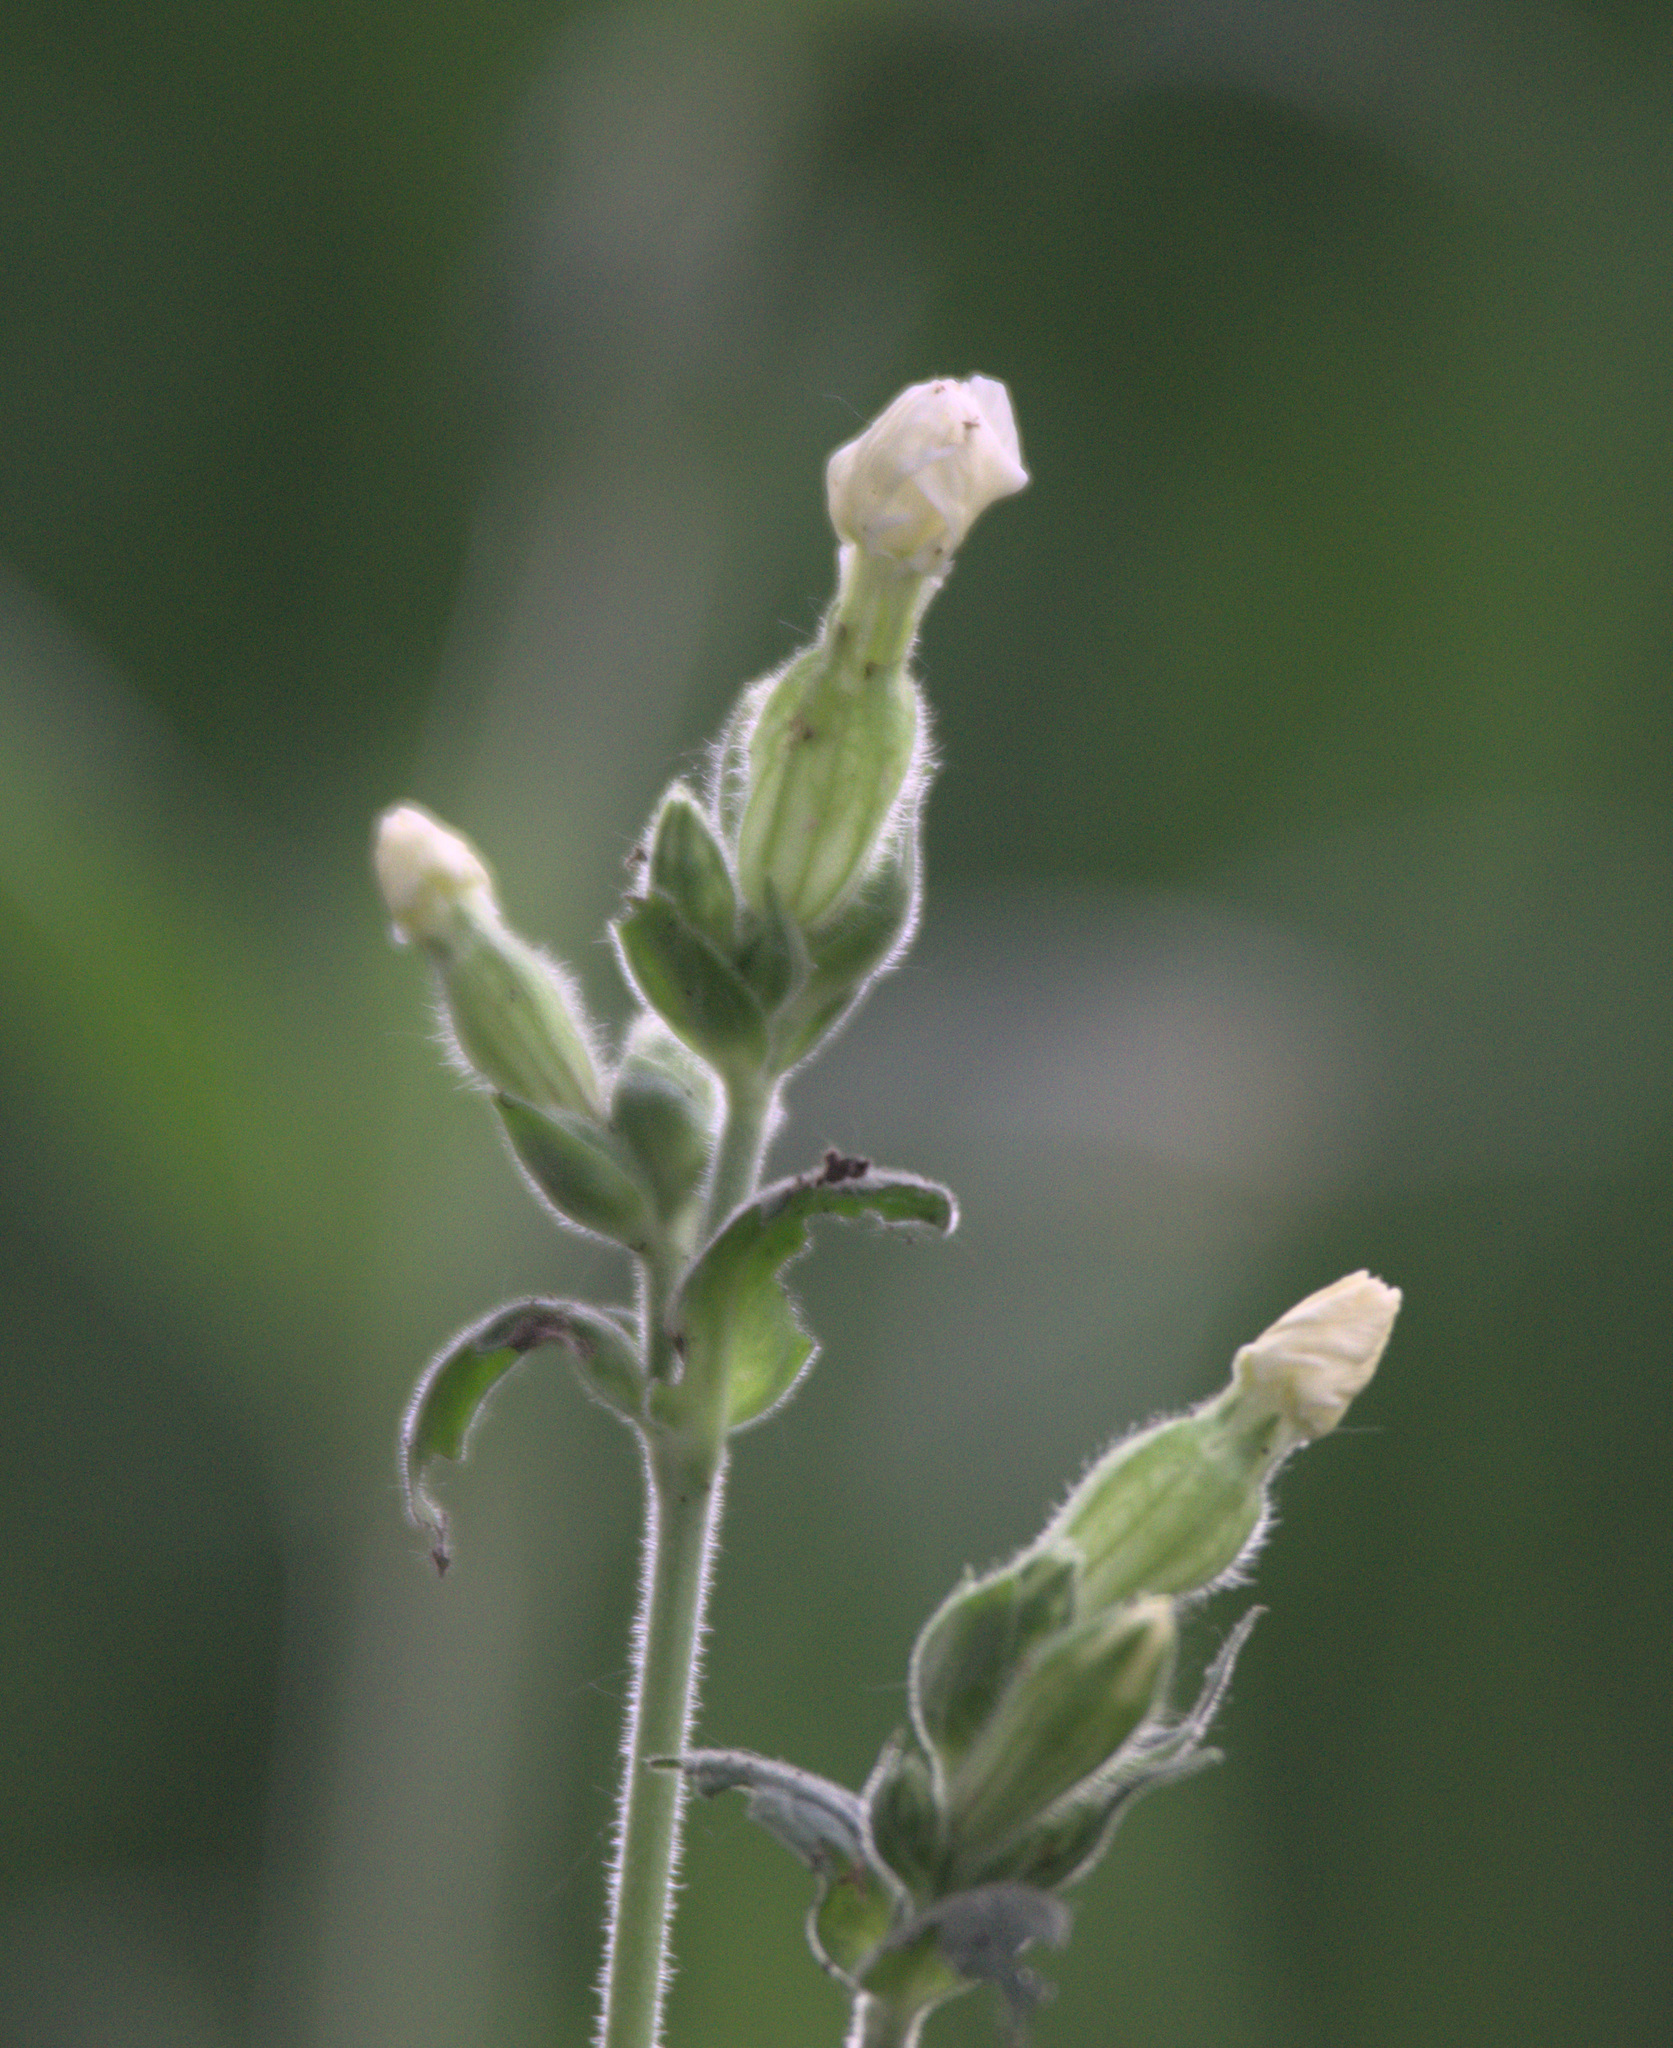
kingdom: Plantae
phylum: Tracheophyta
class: Magnoliopsida
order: Caryophyllales
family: Caryophyllaceae
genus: Silene
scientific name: Silene latifolia
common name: White campion
